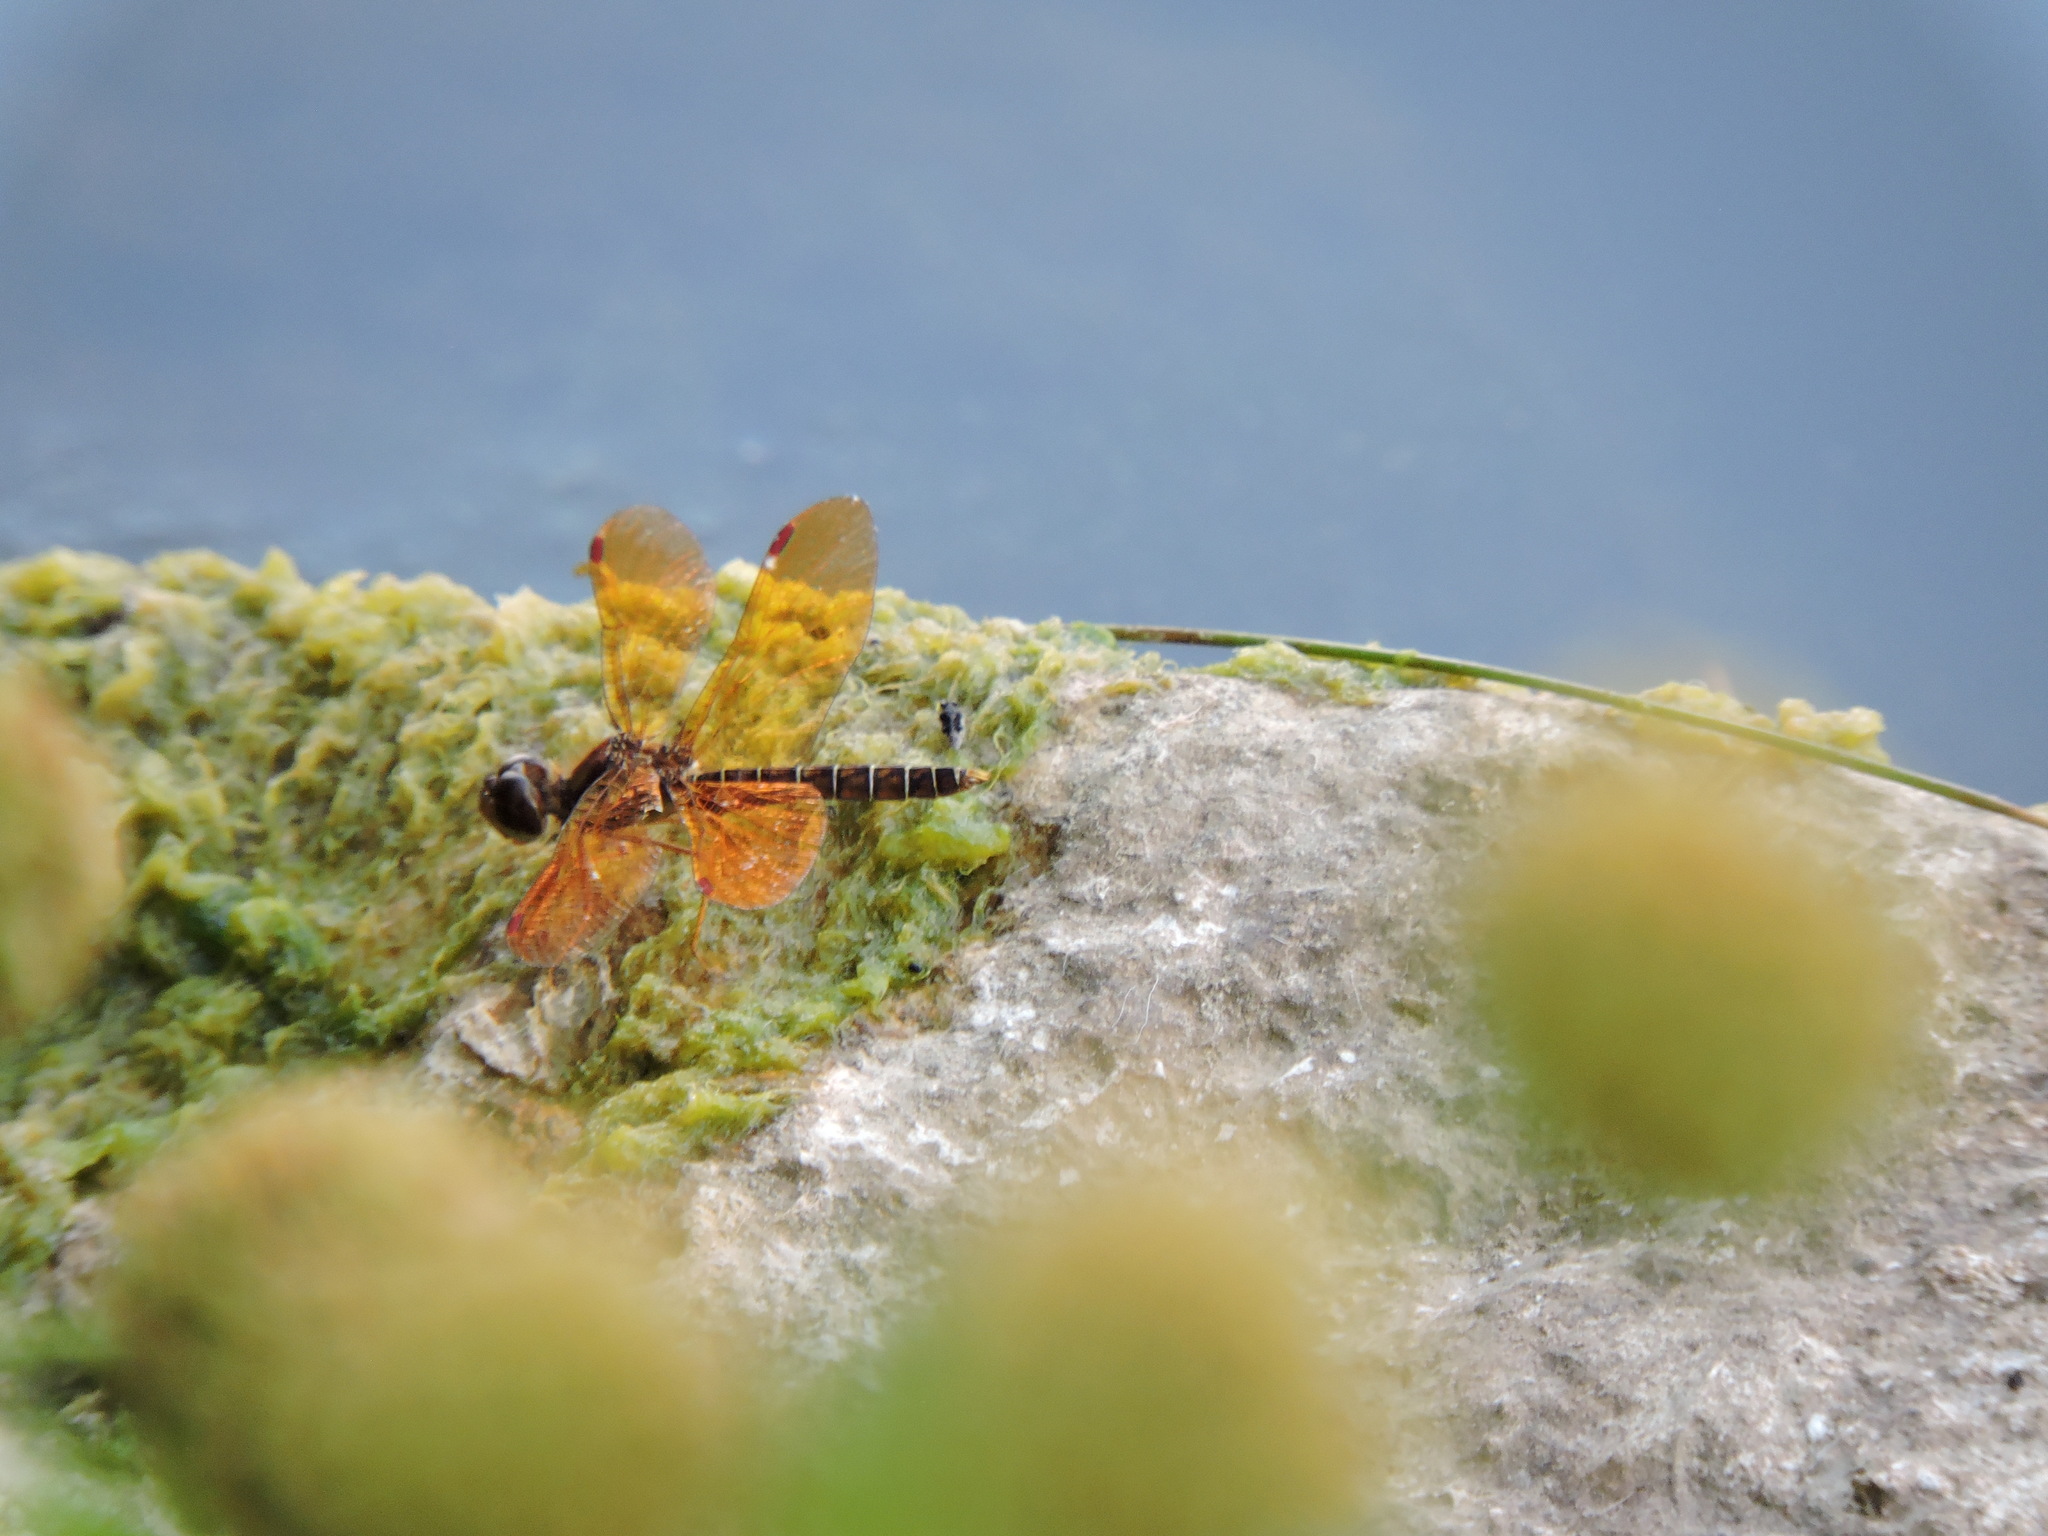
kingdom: Animalia
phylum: Arthropoda
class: Insecta
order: Odonata
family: Libellulidae
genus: Perithemis
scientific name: Perithemis tenera
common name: Eastern amberwing
